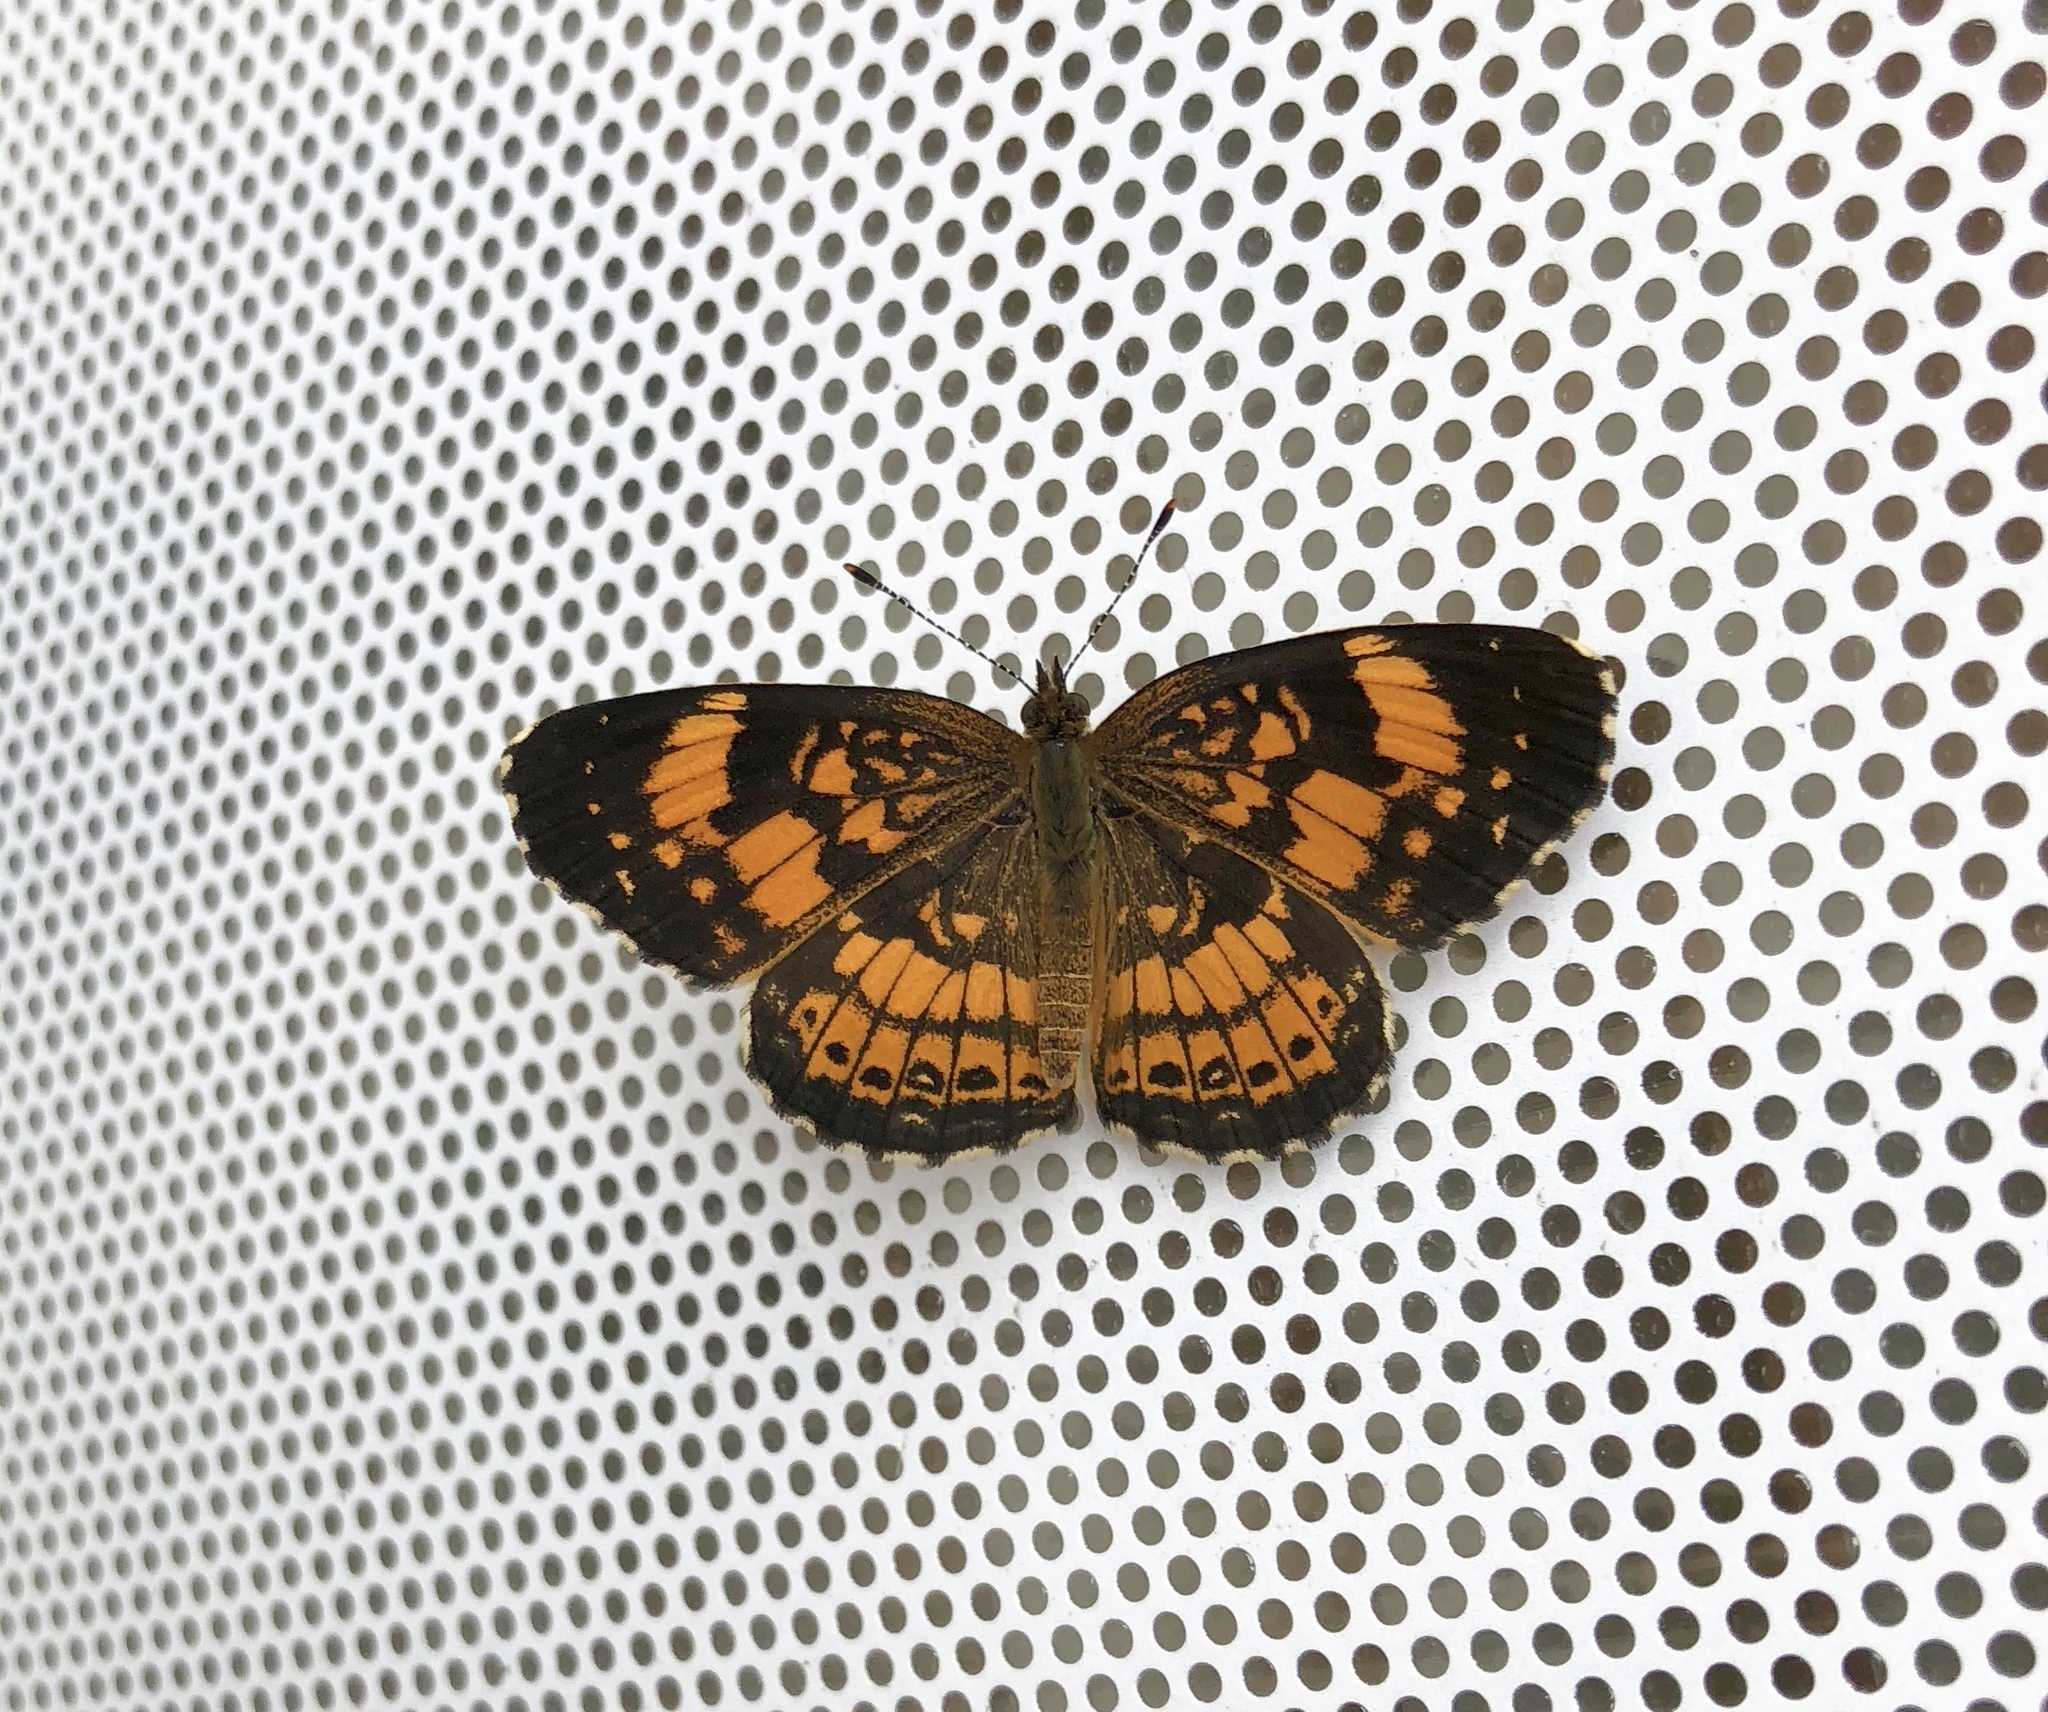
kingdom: Animalia
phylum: Arthropoda
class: Insecta
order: Lepidoptera
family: Nymphalidae
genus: Chlosyne
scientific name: Chlosyne nycteis
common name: Silvery checkerspot
